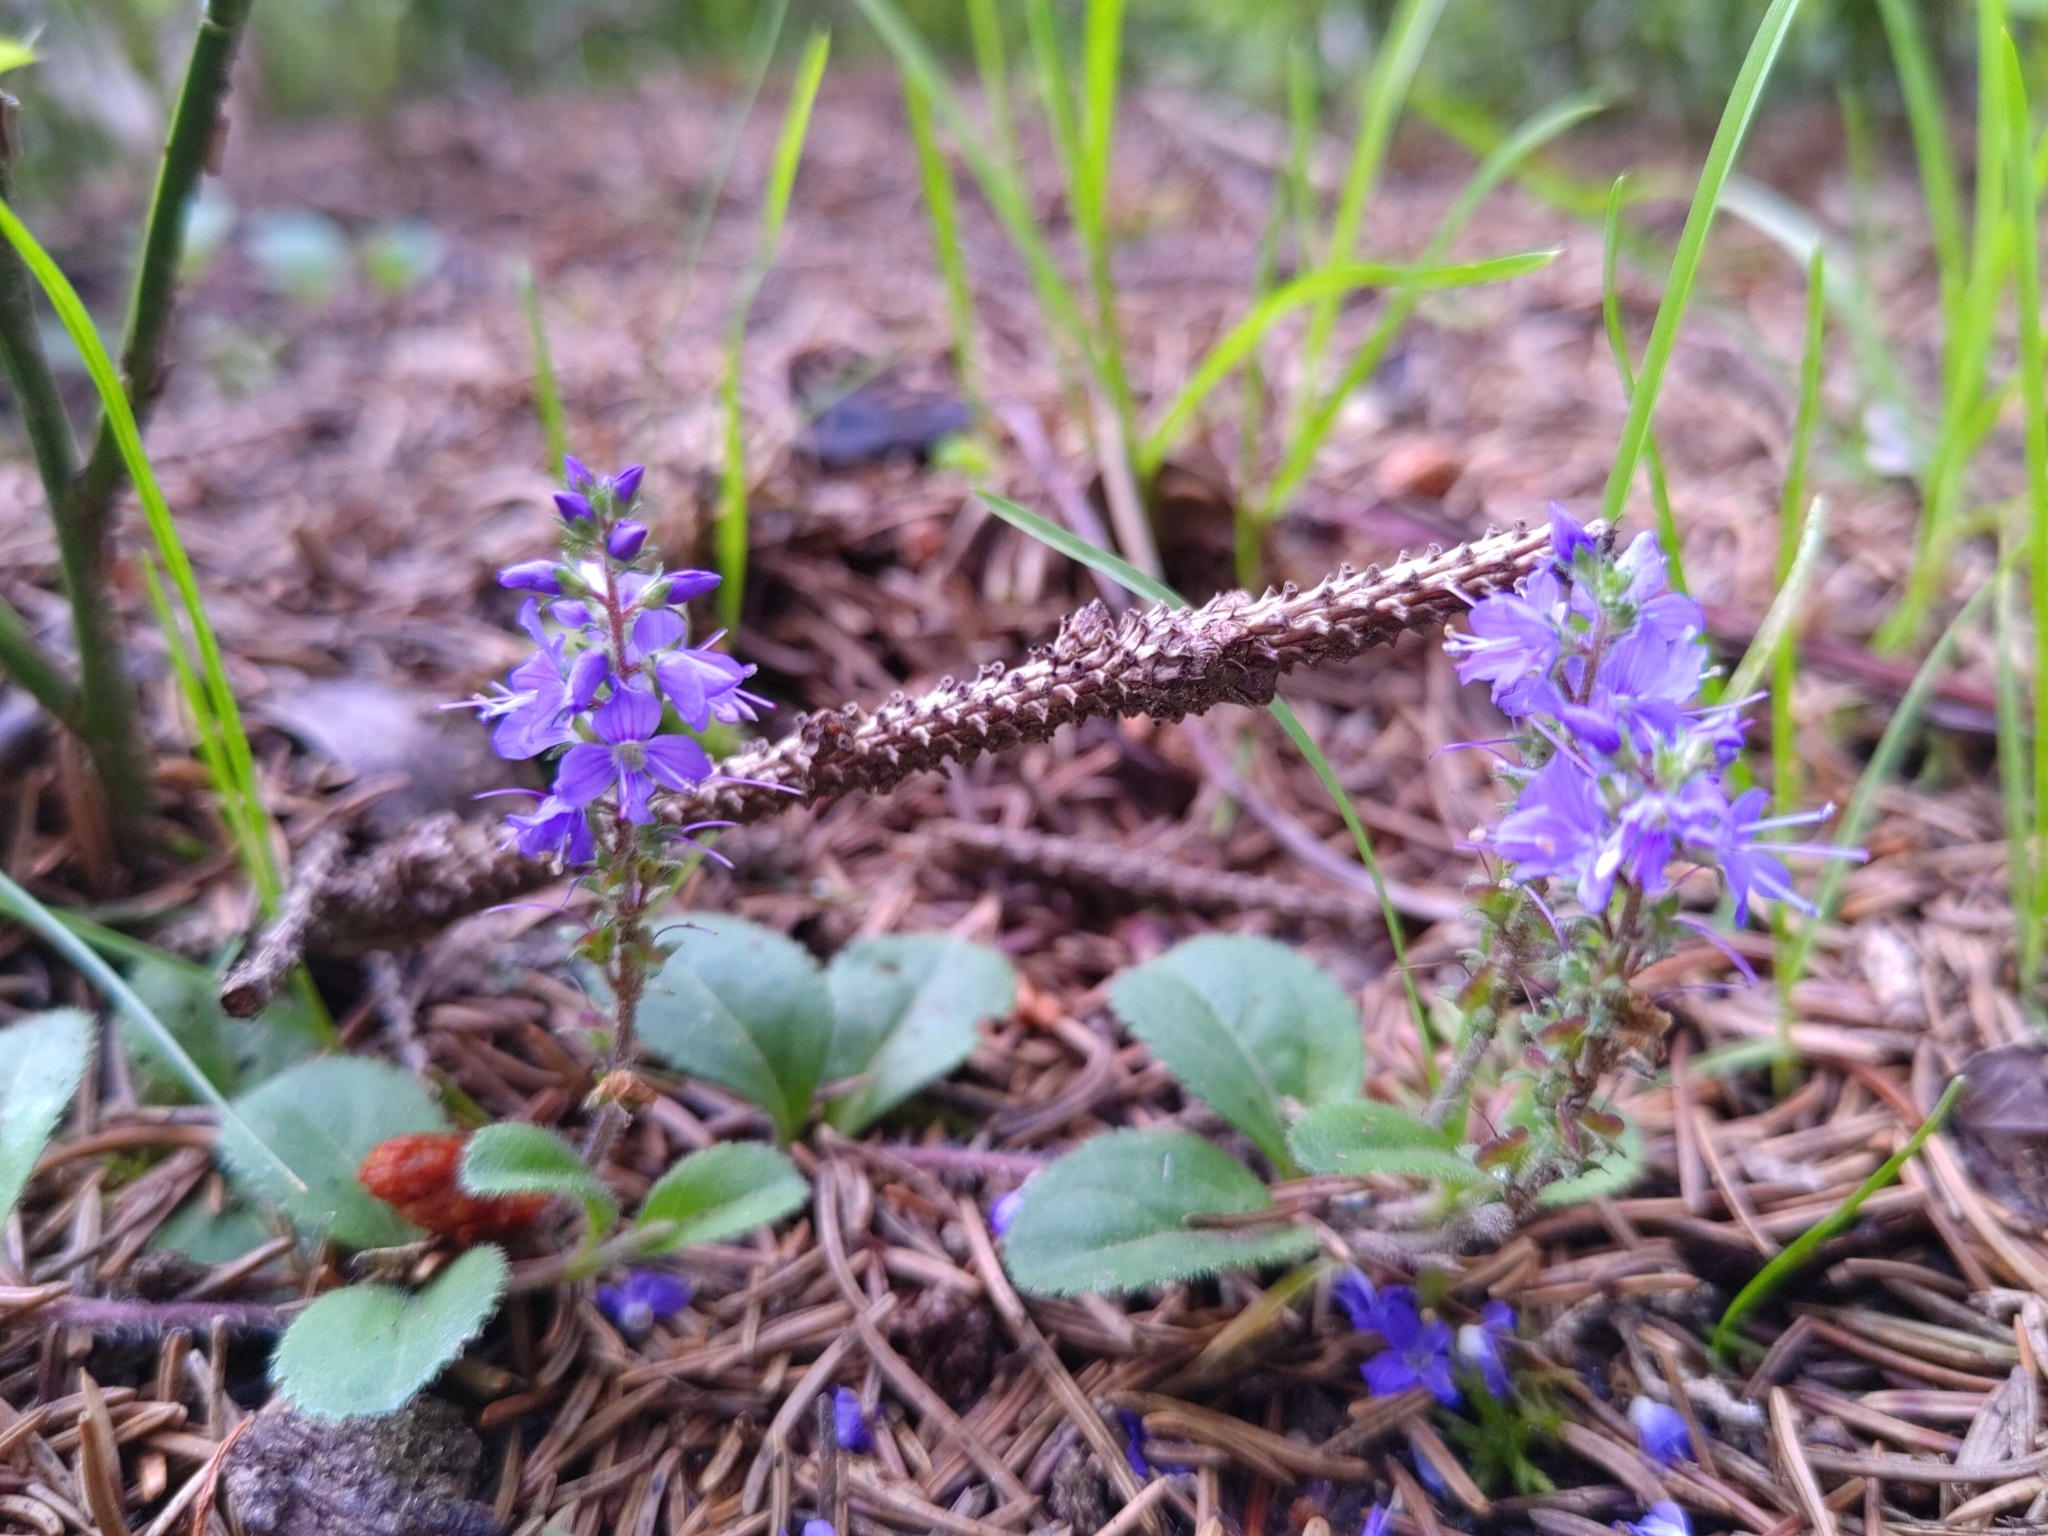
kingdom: Plantae
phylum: Tracheophyta
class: Magnoliopsida
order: Lamiales
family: Plantaginaceae
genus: Veronica
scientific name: Veronica officinalis
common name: Common speedwell
